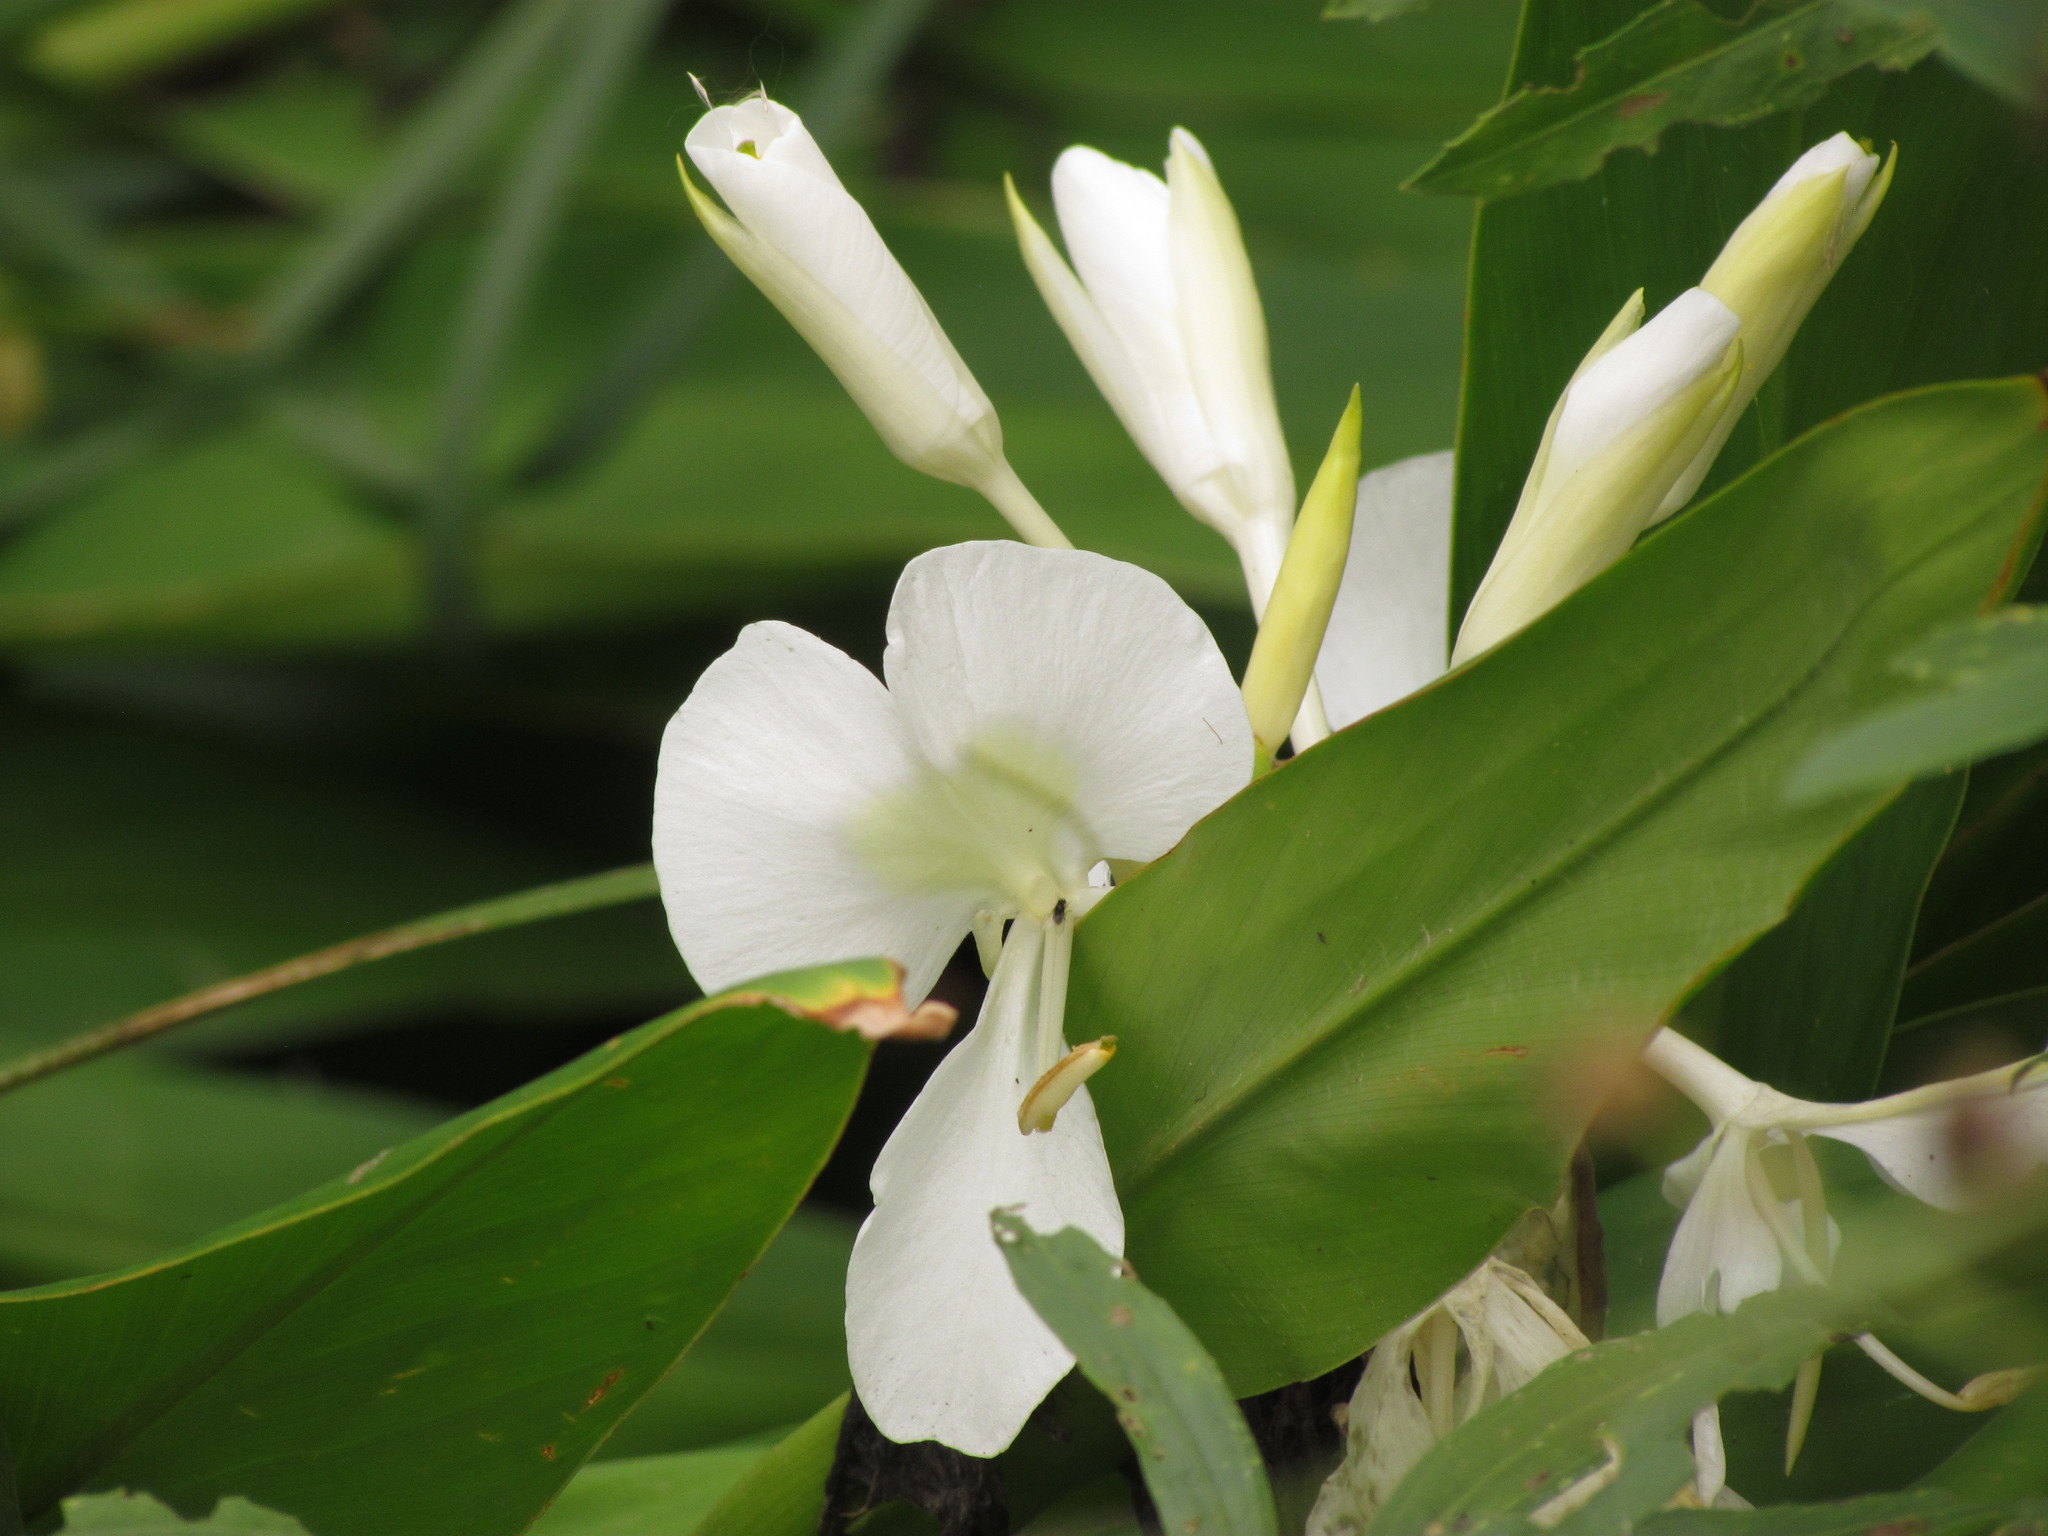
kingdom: Plantae
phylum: Tracheophyta
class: Liliopsida
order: Zingiberales
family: Zingiberaceae
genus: Hedychium
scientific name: Hedychium coronarium
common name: White garland-lily
